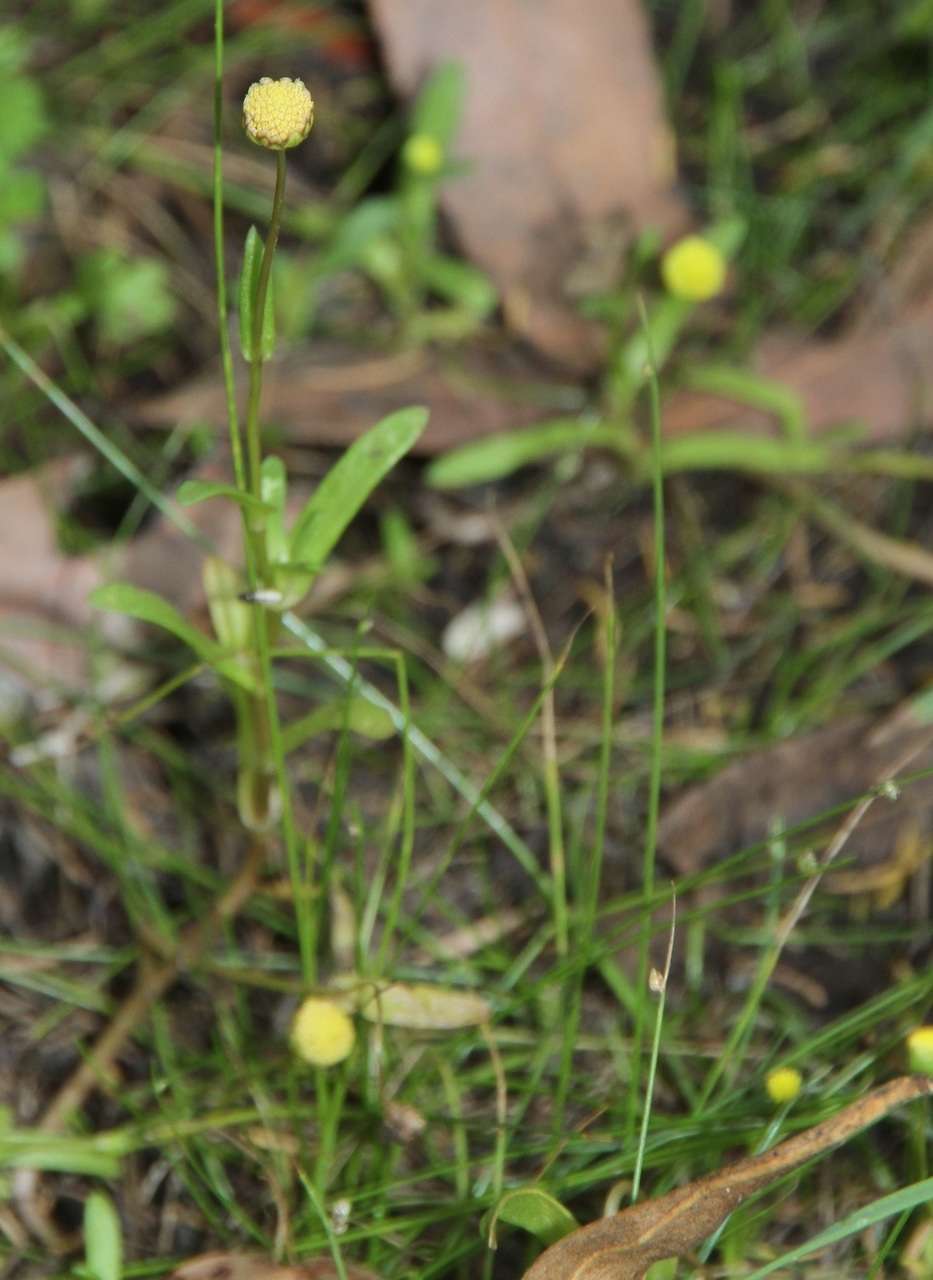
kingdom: Plantae
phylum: Tracheophyta
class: Magnoliopsida
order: Asterales
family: Asteraceae
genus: Cotula
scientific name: Cotula coronopifolia
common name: Buttonweed
